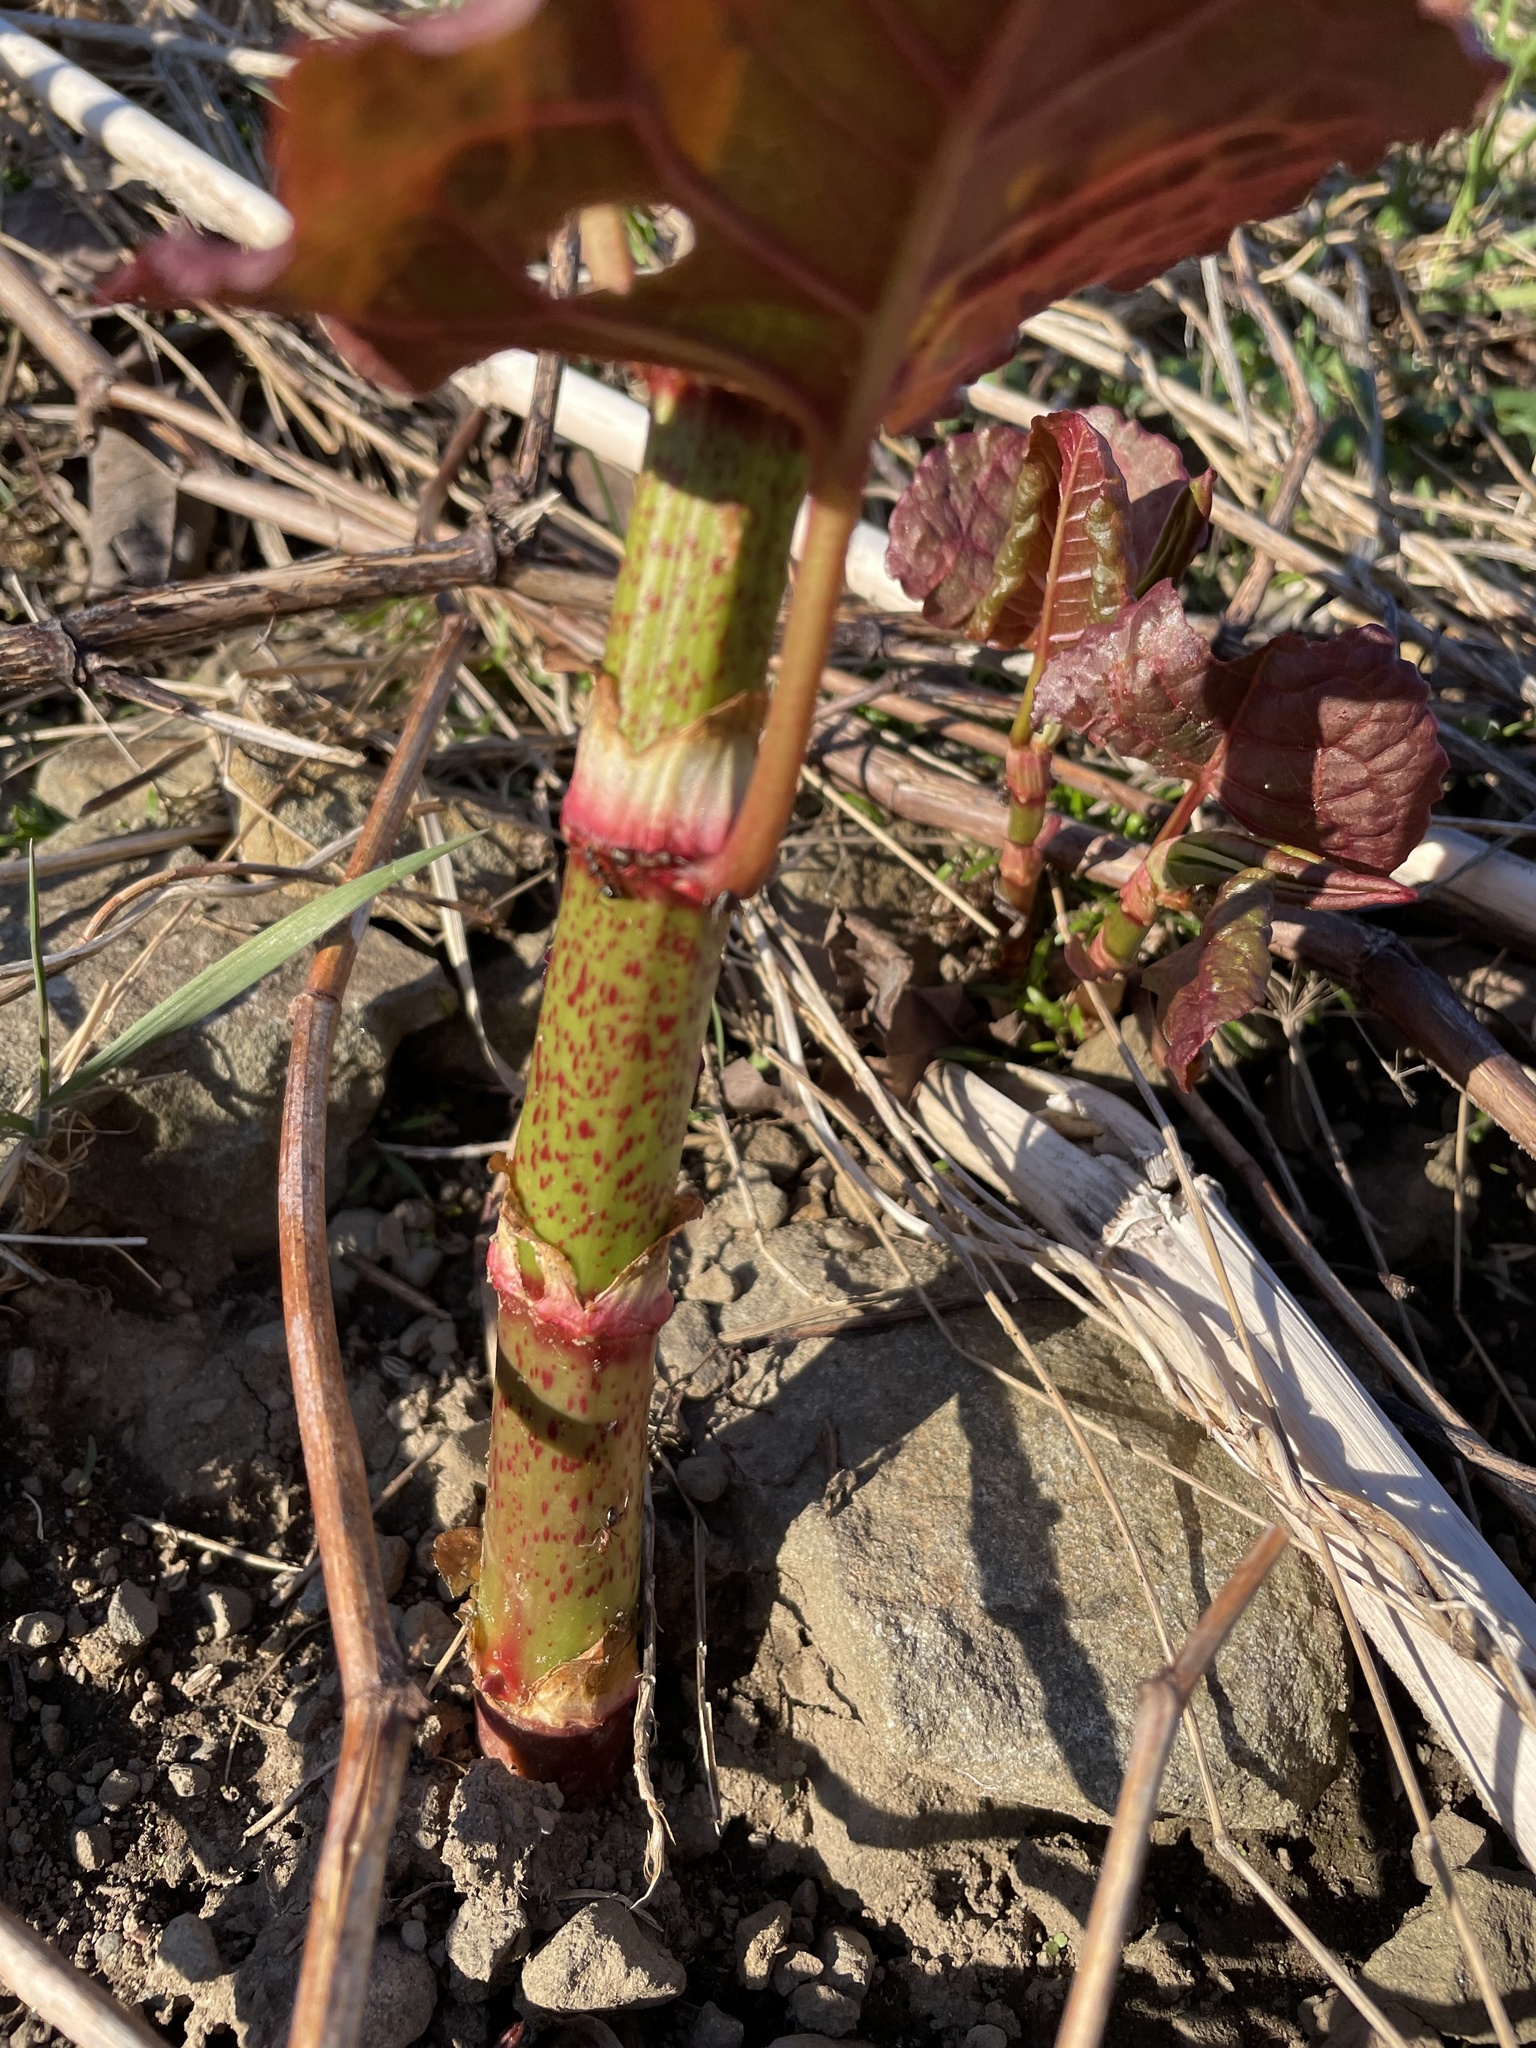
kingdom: Plantae
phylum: Tracheophyta
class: Magnoliopsida
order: Caryophyllales
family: Polygonaceae
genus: Reynoutria
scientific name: Reynoutria japonica
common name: Japanese knotweed
